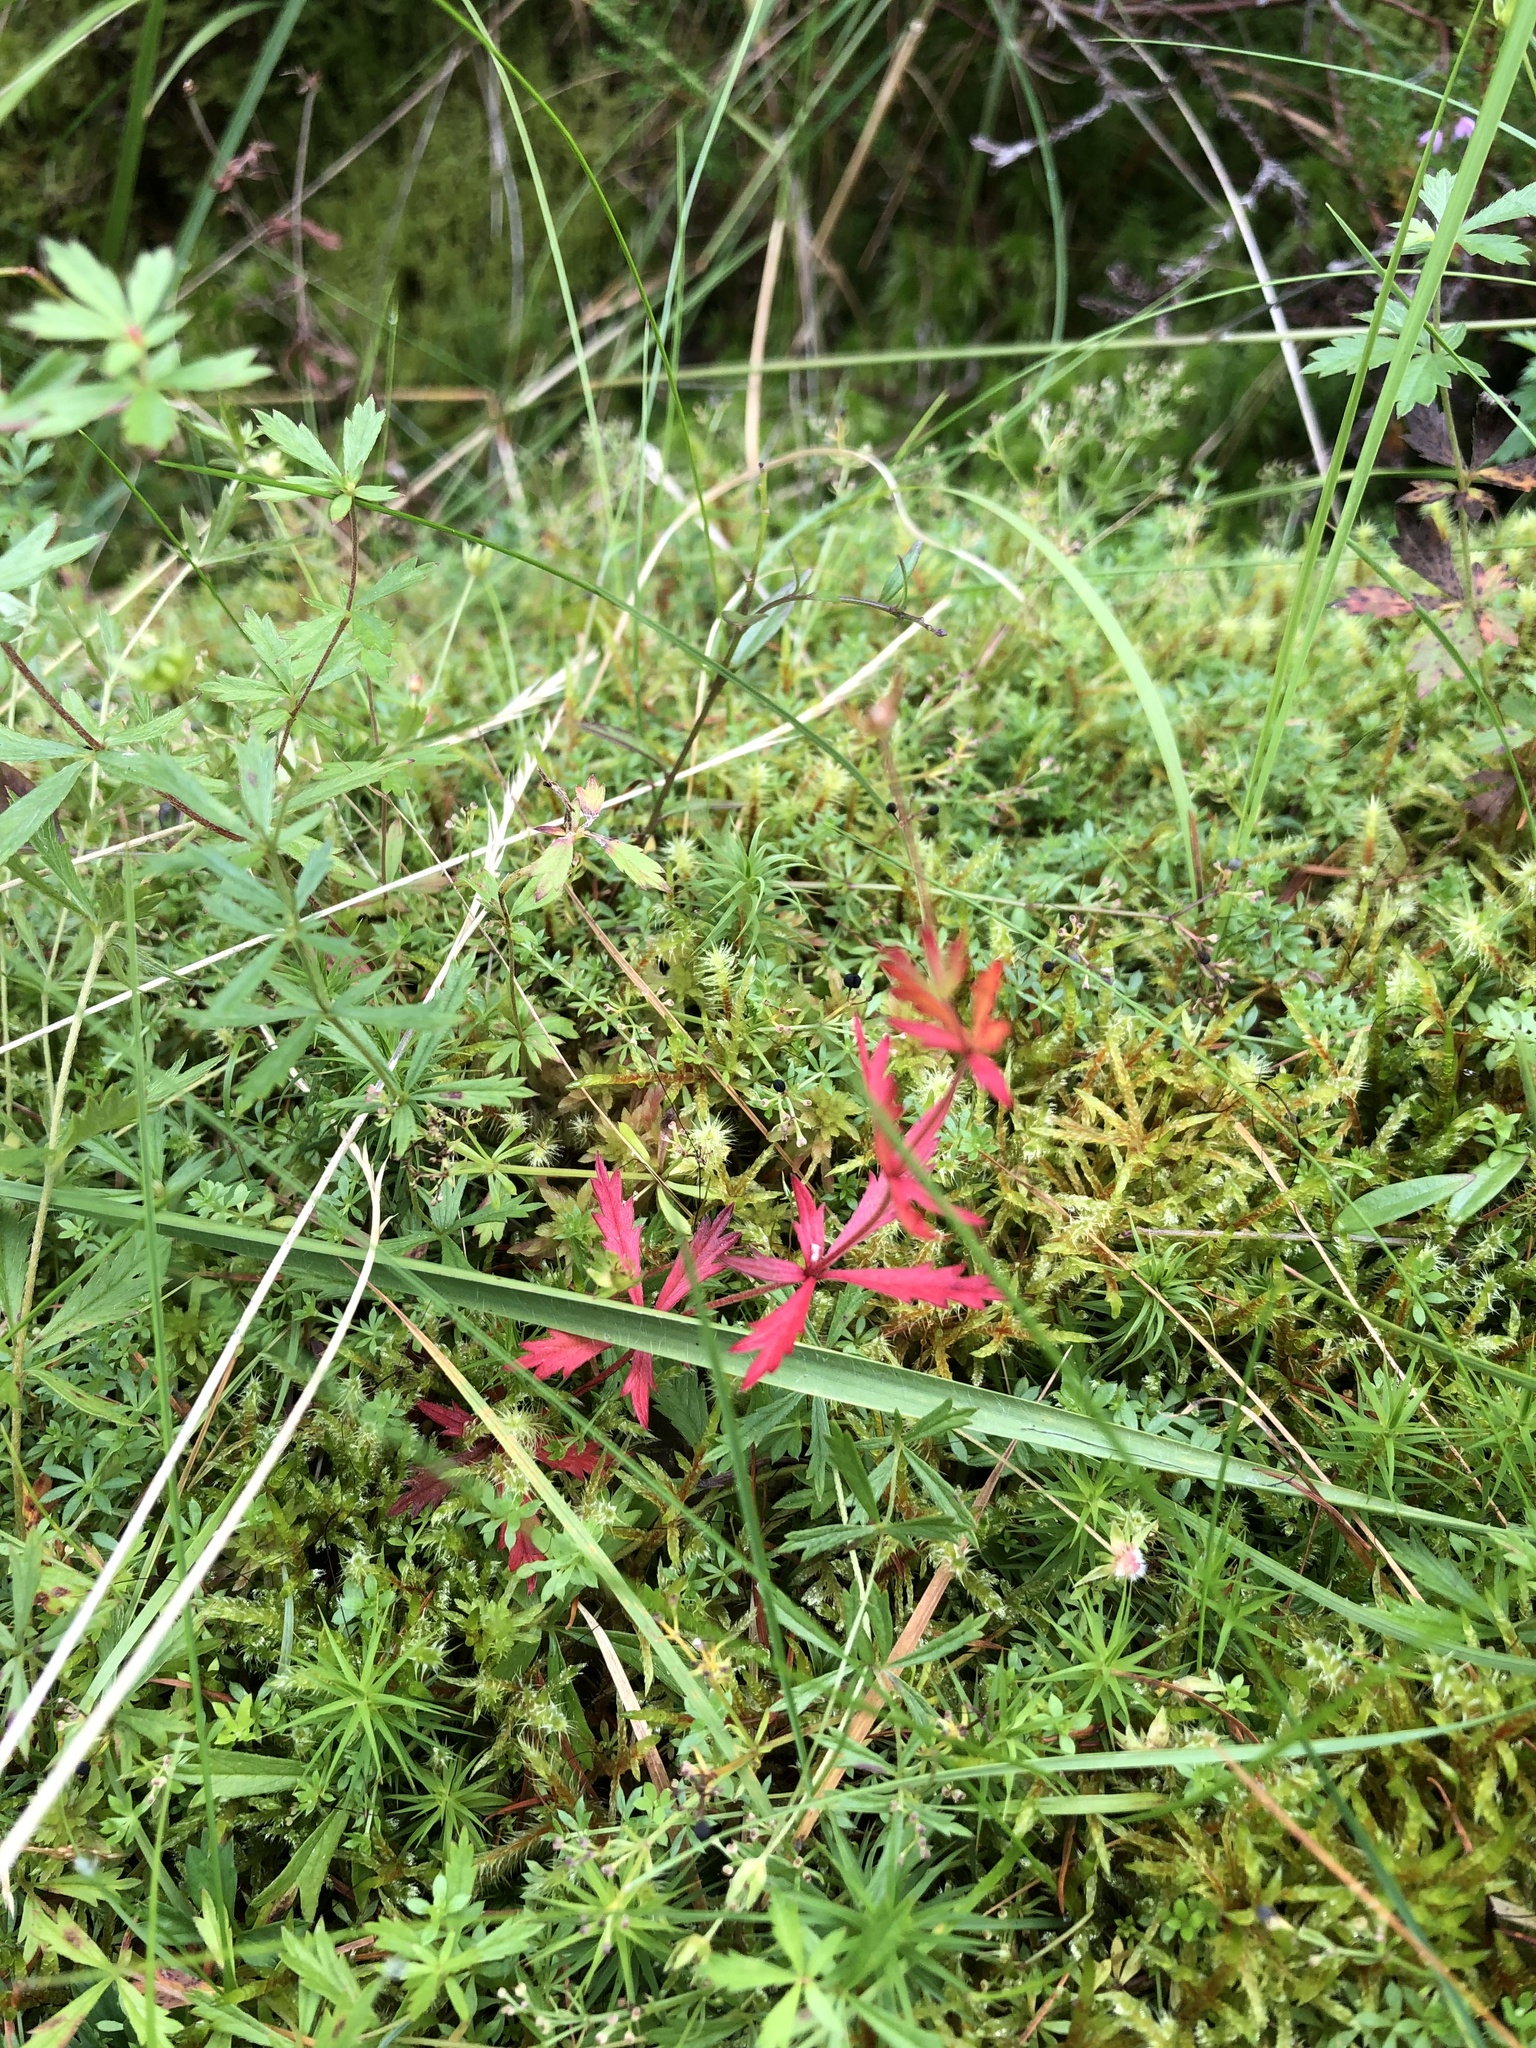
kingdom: Plantae
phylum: Tracheophyta
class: Magnoliopsida
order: Rosales
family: Rosaceae
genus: Potentilla
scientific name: Potentilla erecta
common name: Tormentil
